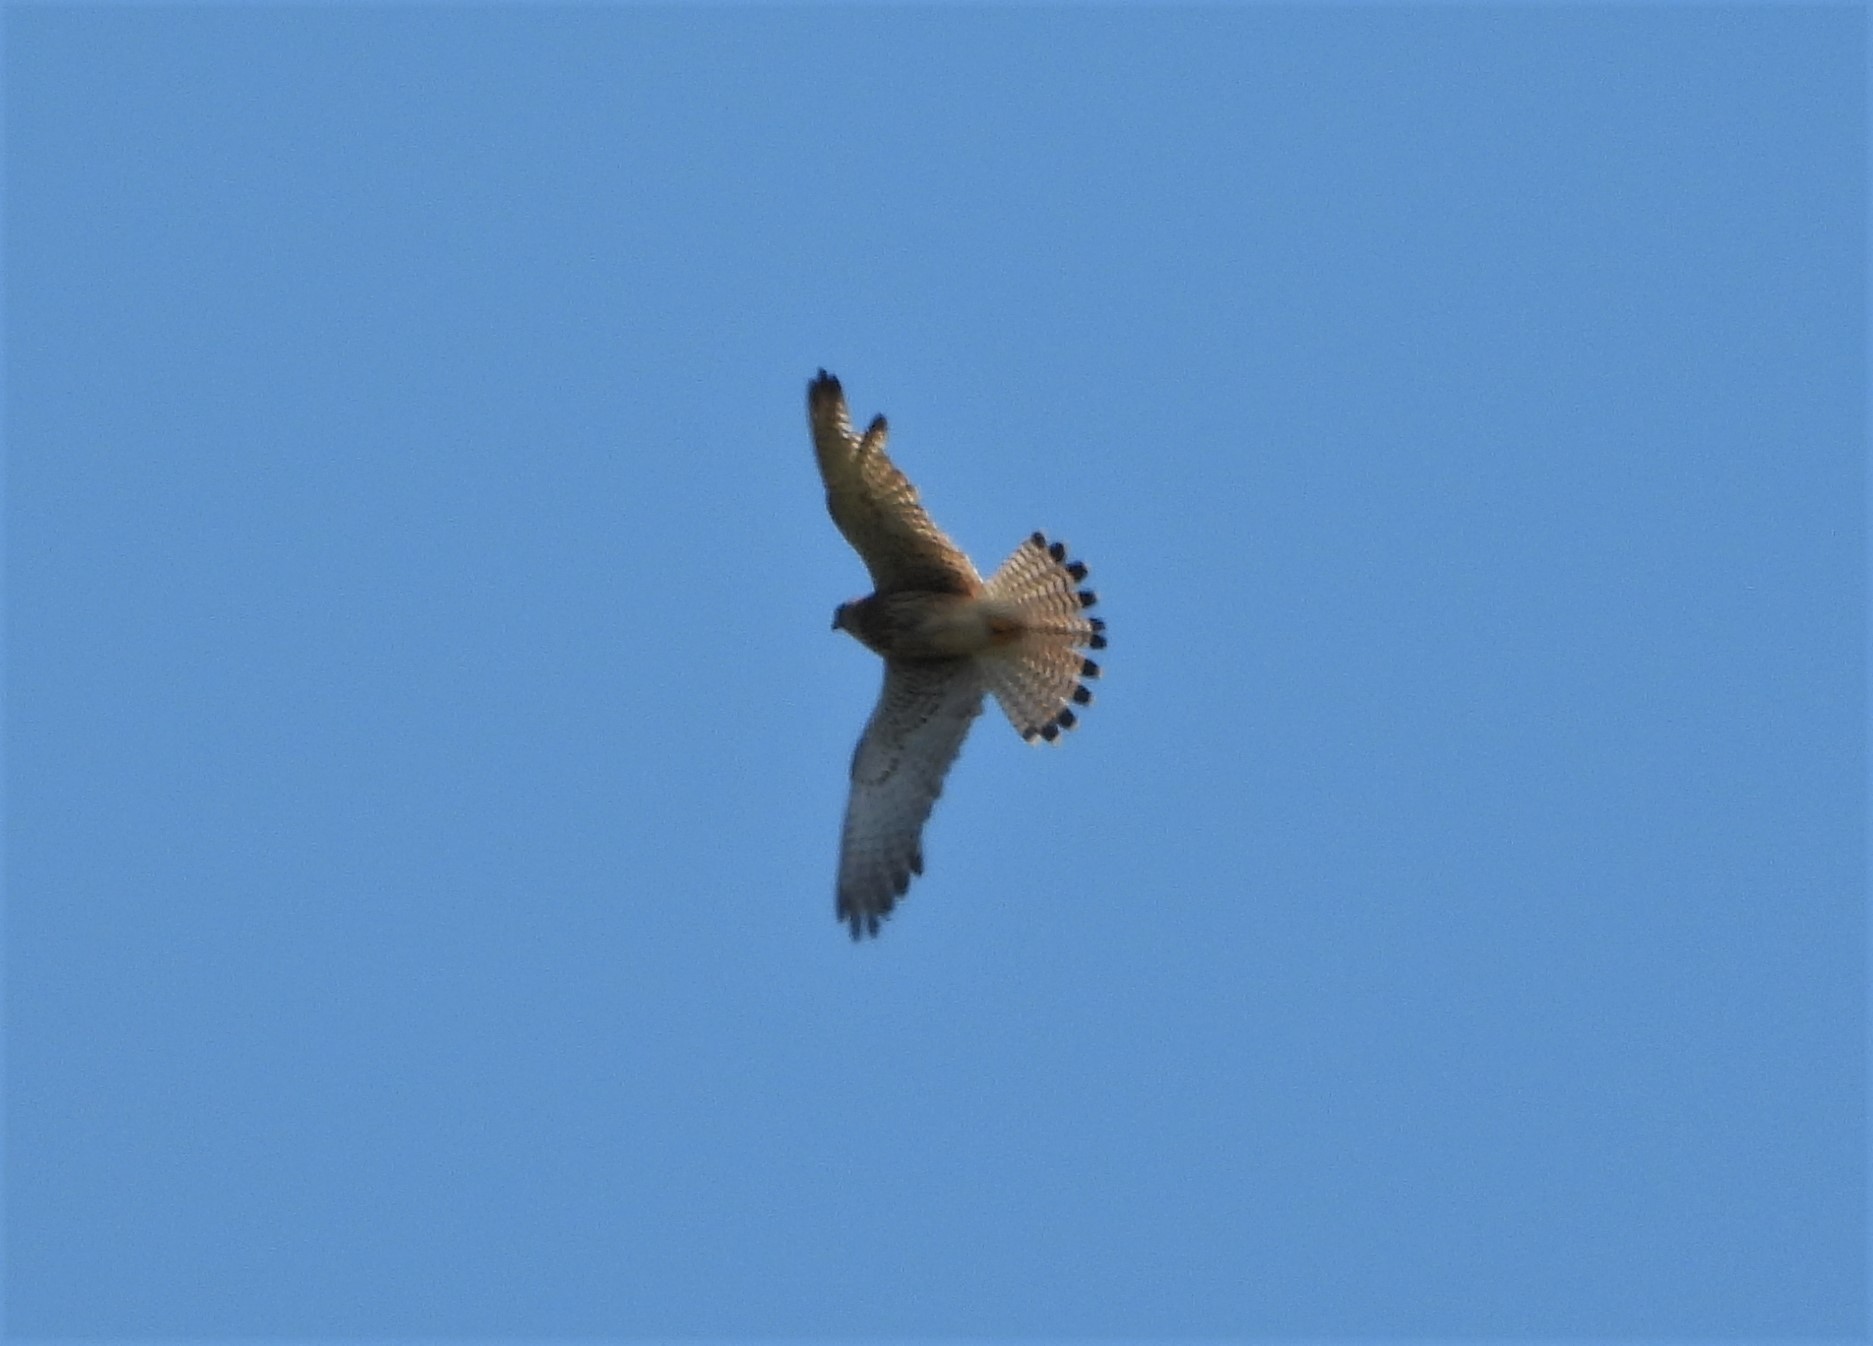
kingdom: Animalia
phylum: Chordata
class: Aves
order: Falconiformes
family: Falconidae
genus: Falco
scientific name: Falco tinnunculus
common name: Common kestrel
